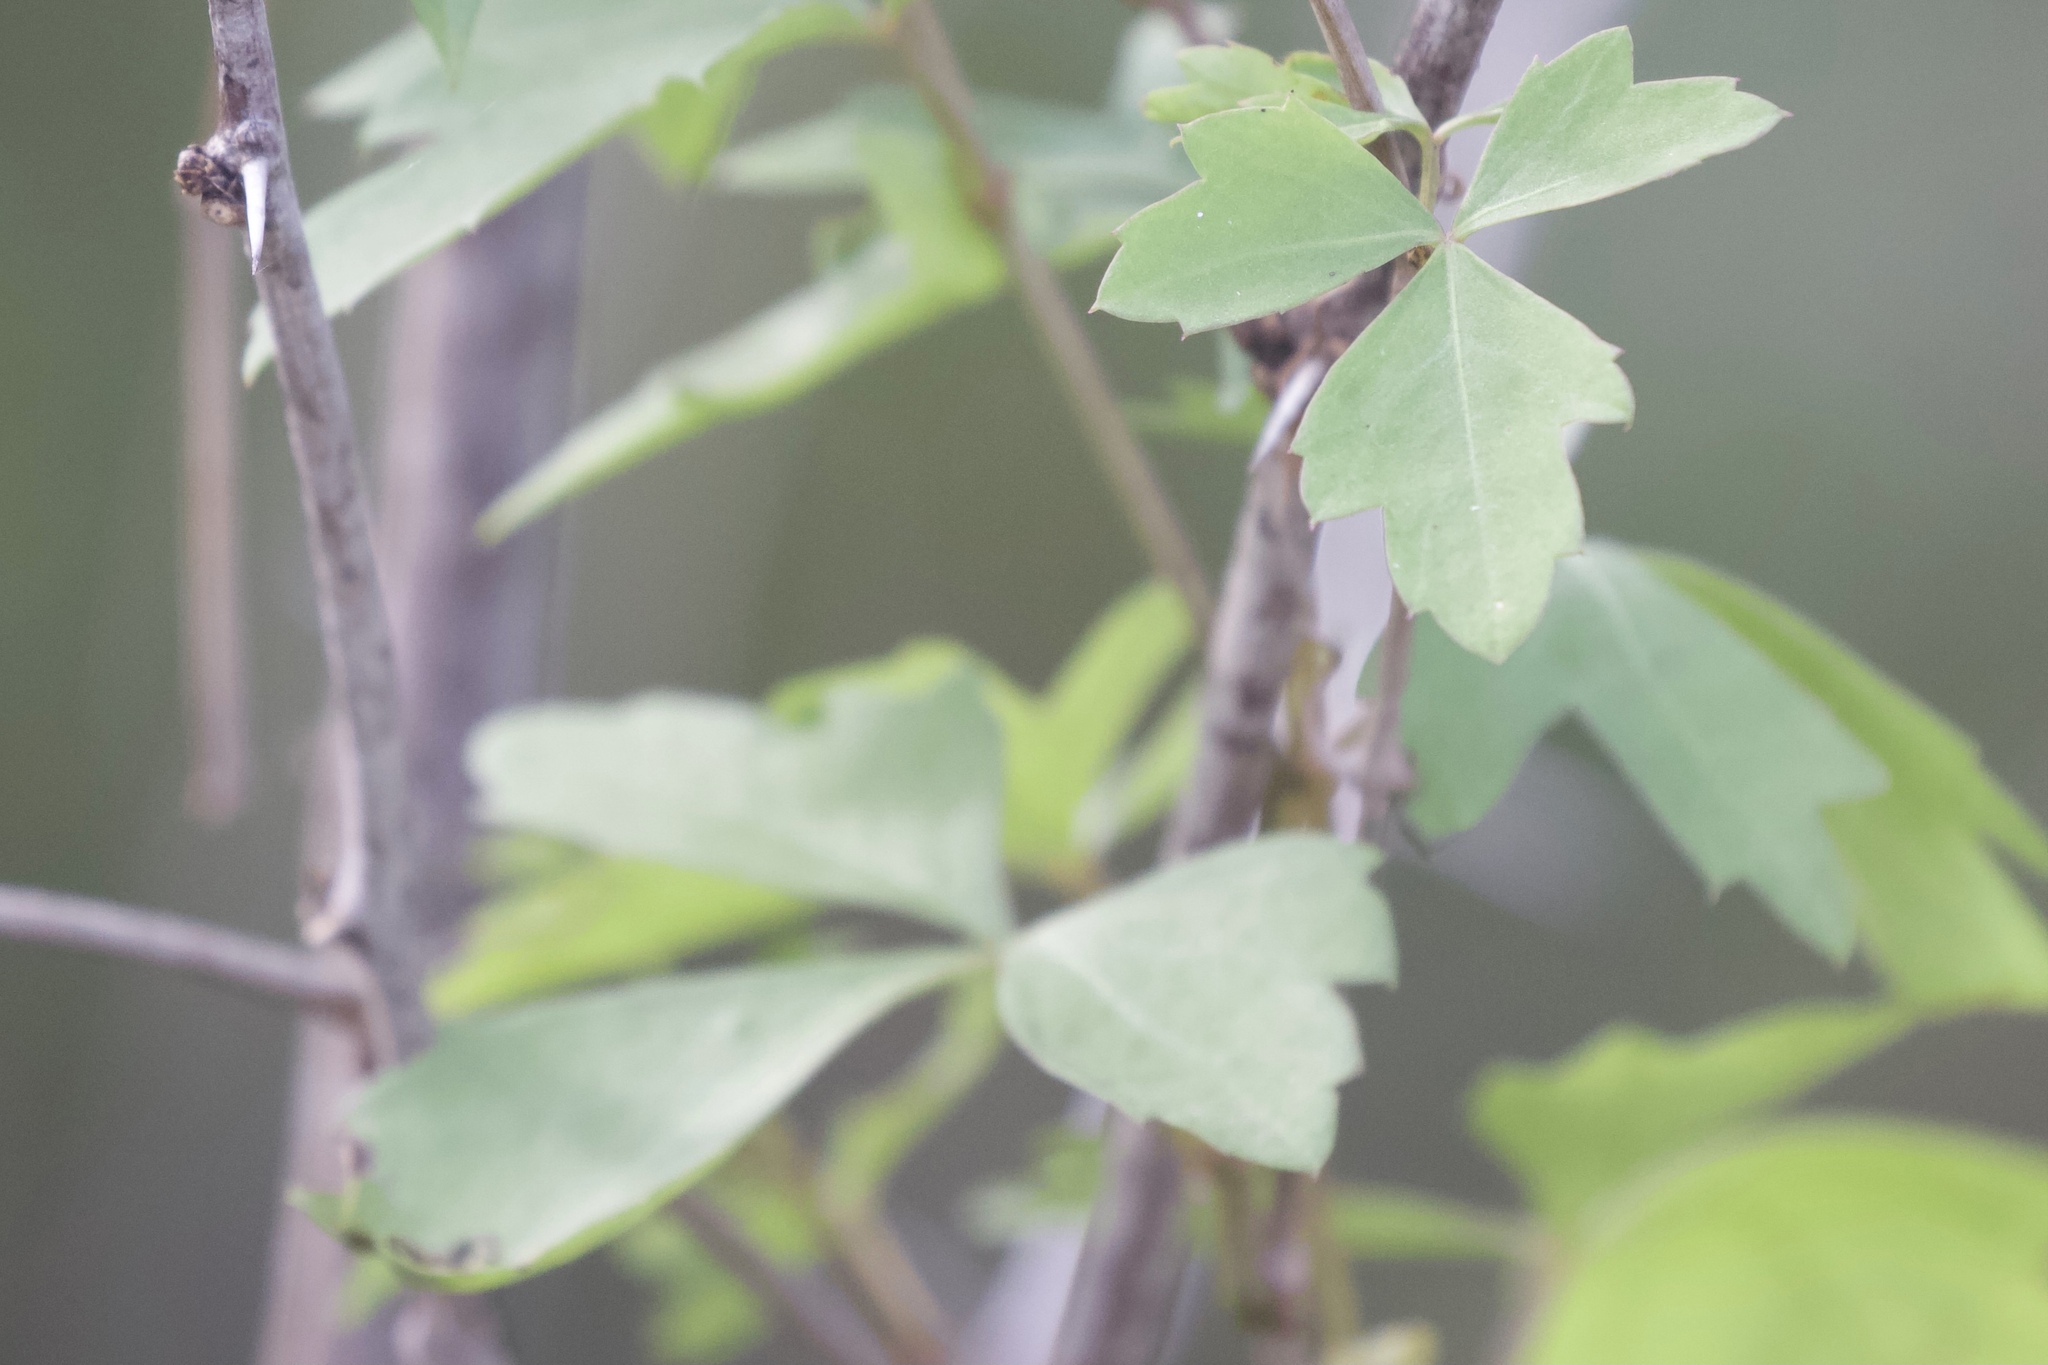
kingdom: Plantae
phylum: Tracheophyta
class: Magnoliopsida
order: Vitales
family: Vitaceae
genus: Cissus
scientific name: Cissus trifoliata
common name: Vine-sorrel
